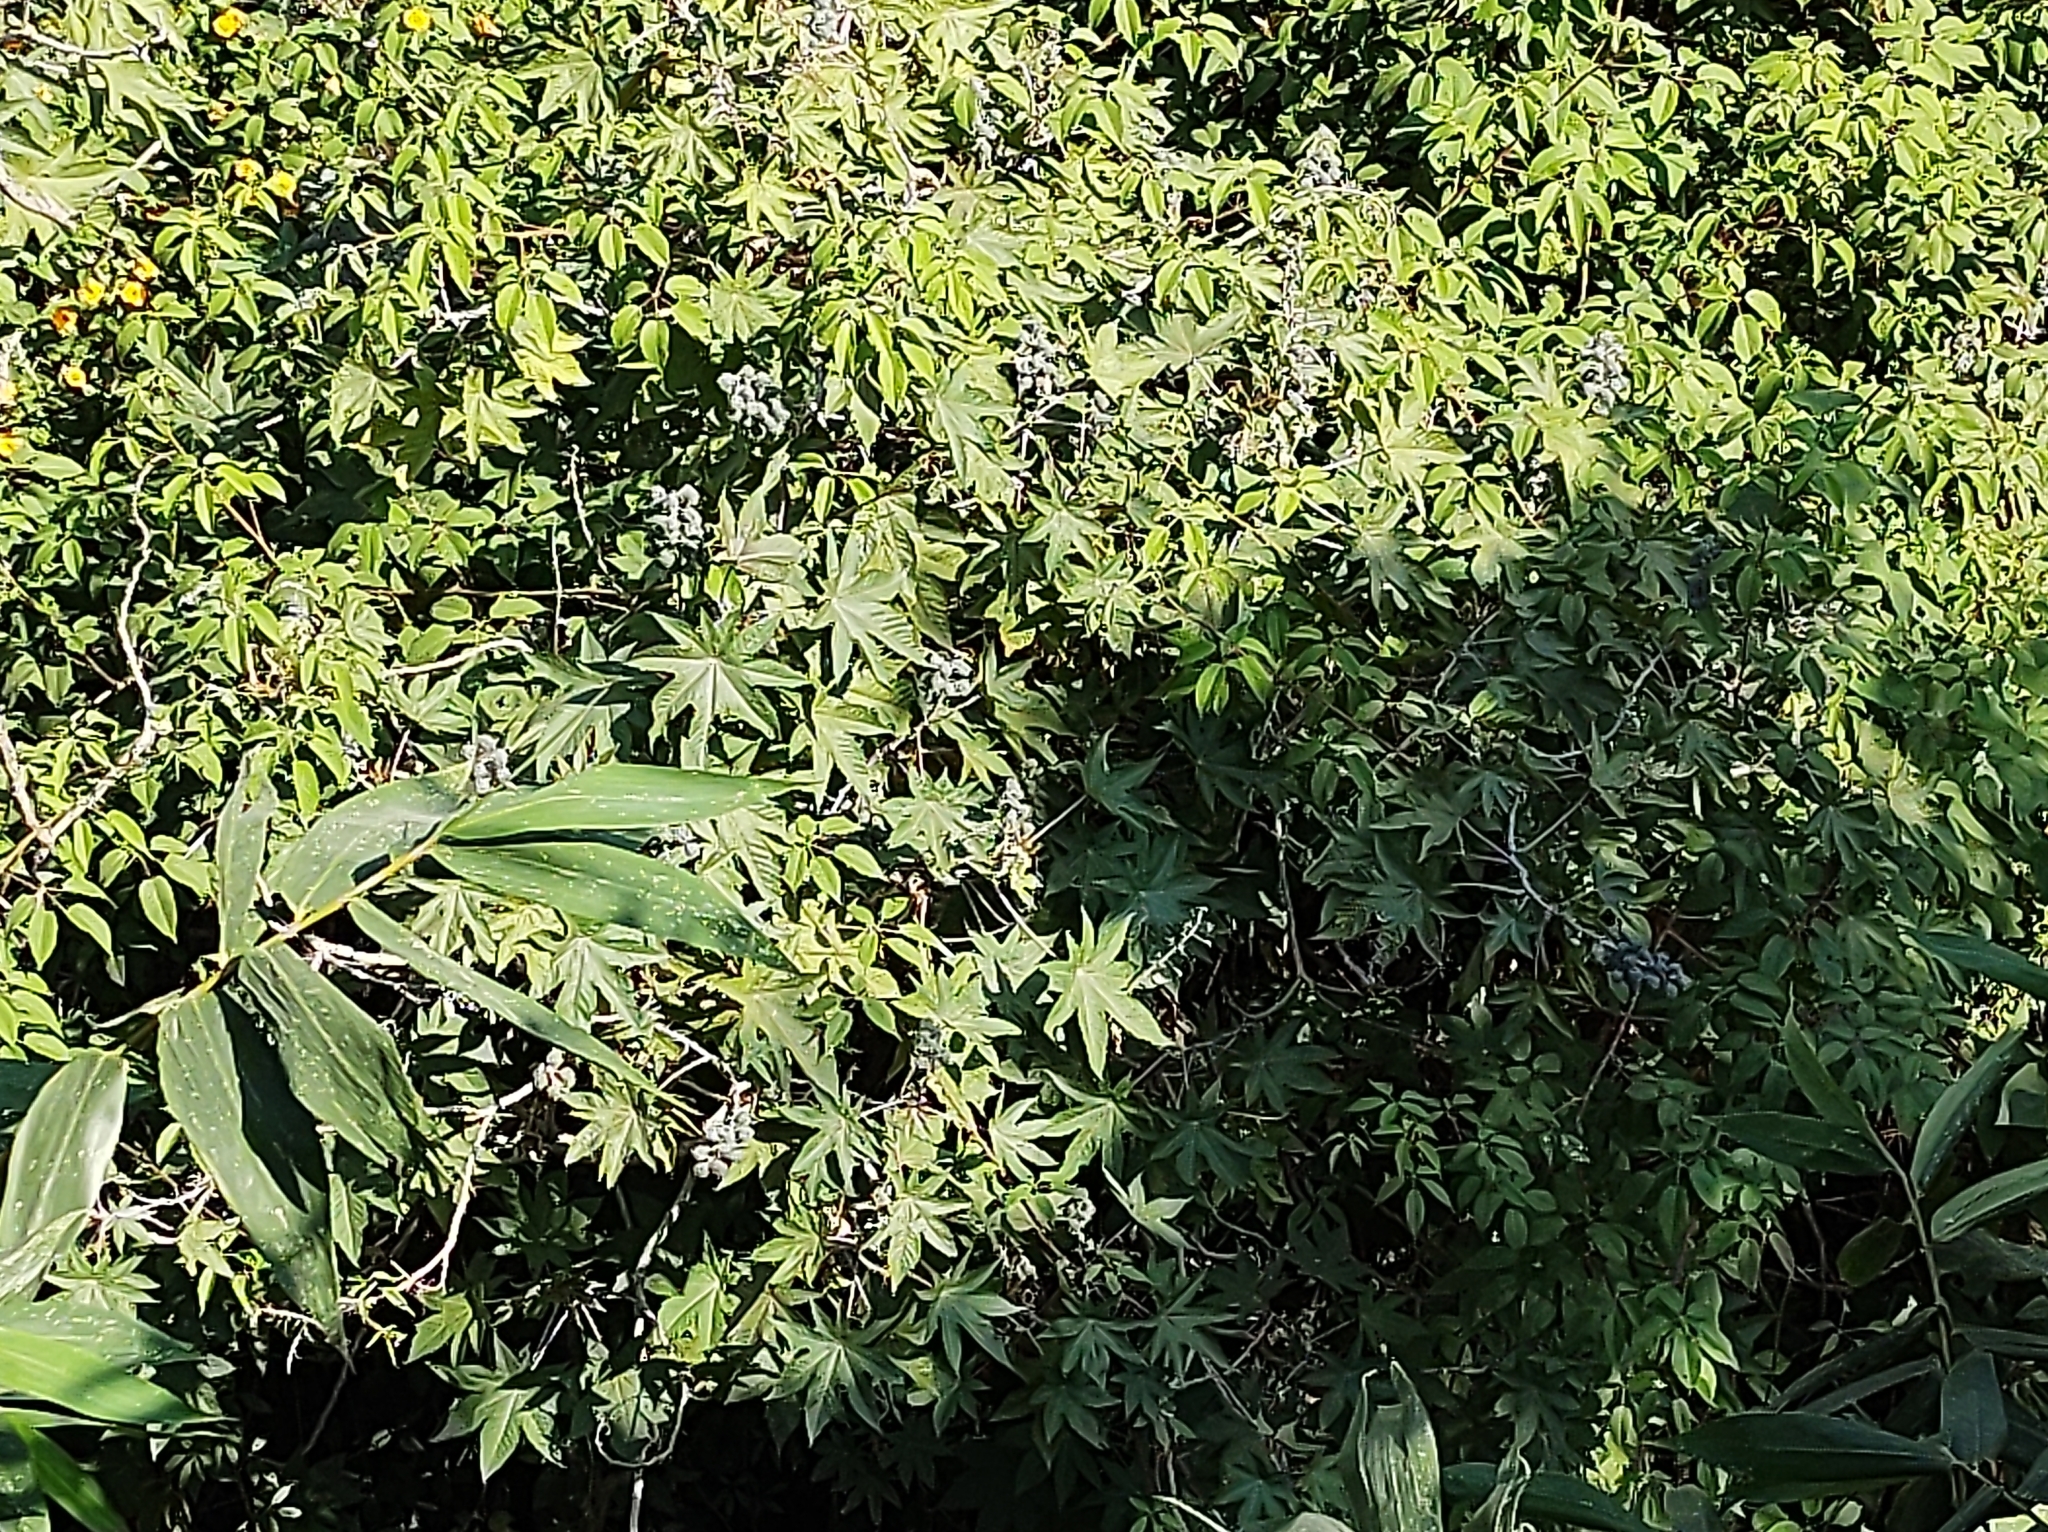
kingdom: Plantae
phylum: Tracheophyta
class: Magnoliopsida
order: Malpighiales
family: Euphorbiaceae
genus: Ricinus
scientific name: Ricinus communis
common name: Castor-oil-plant
